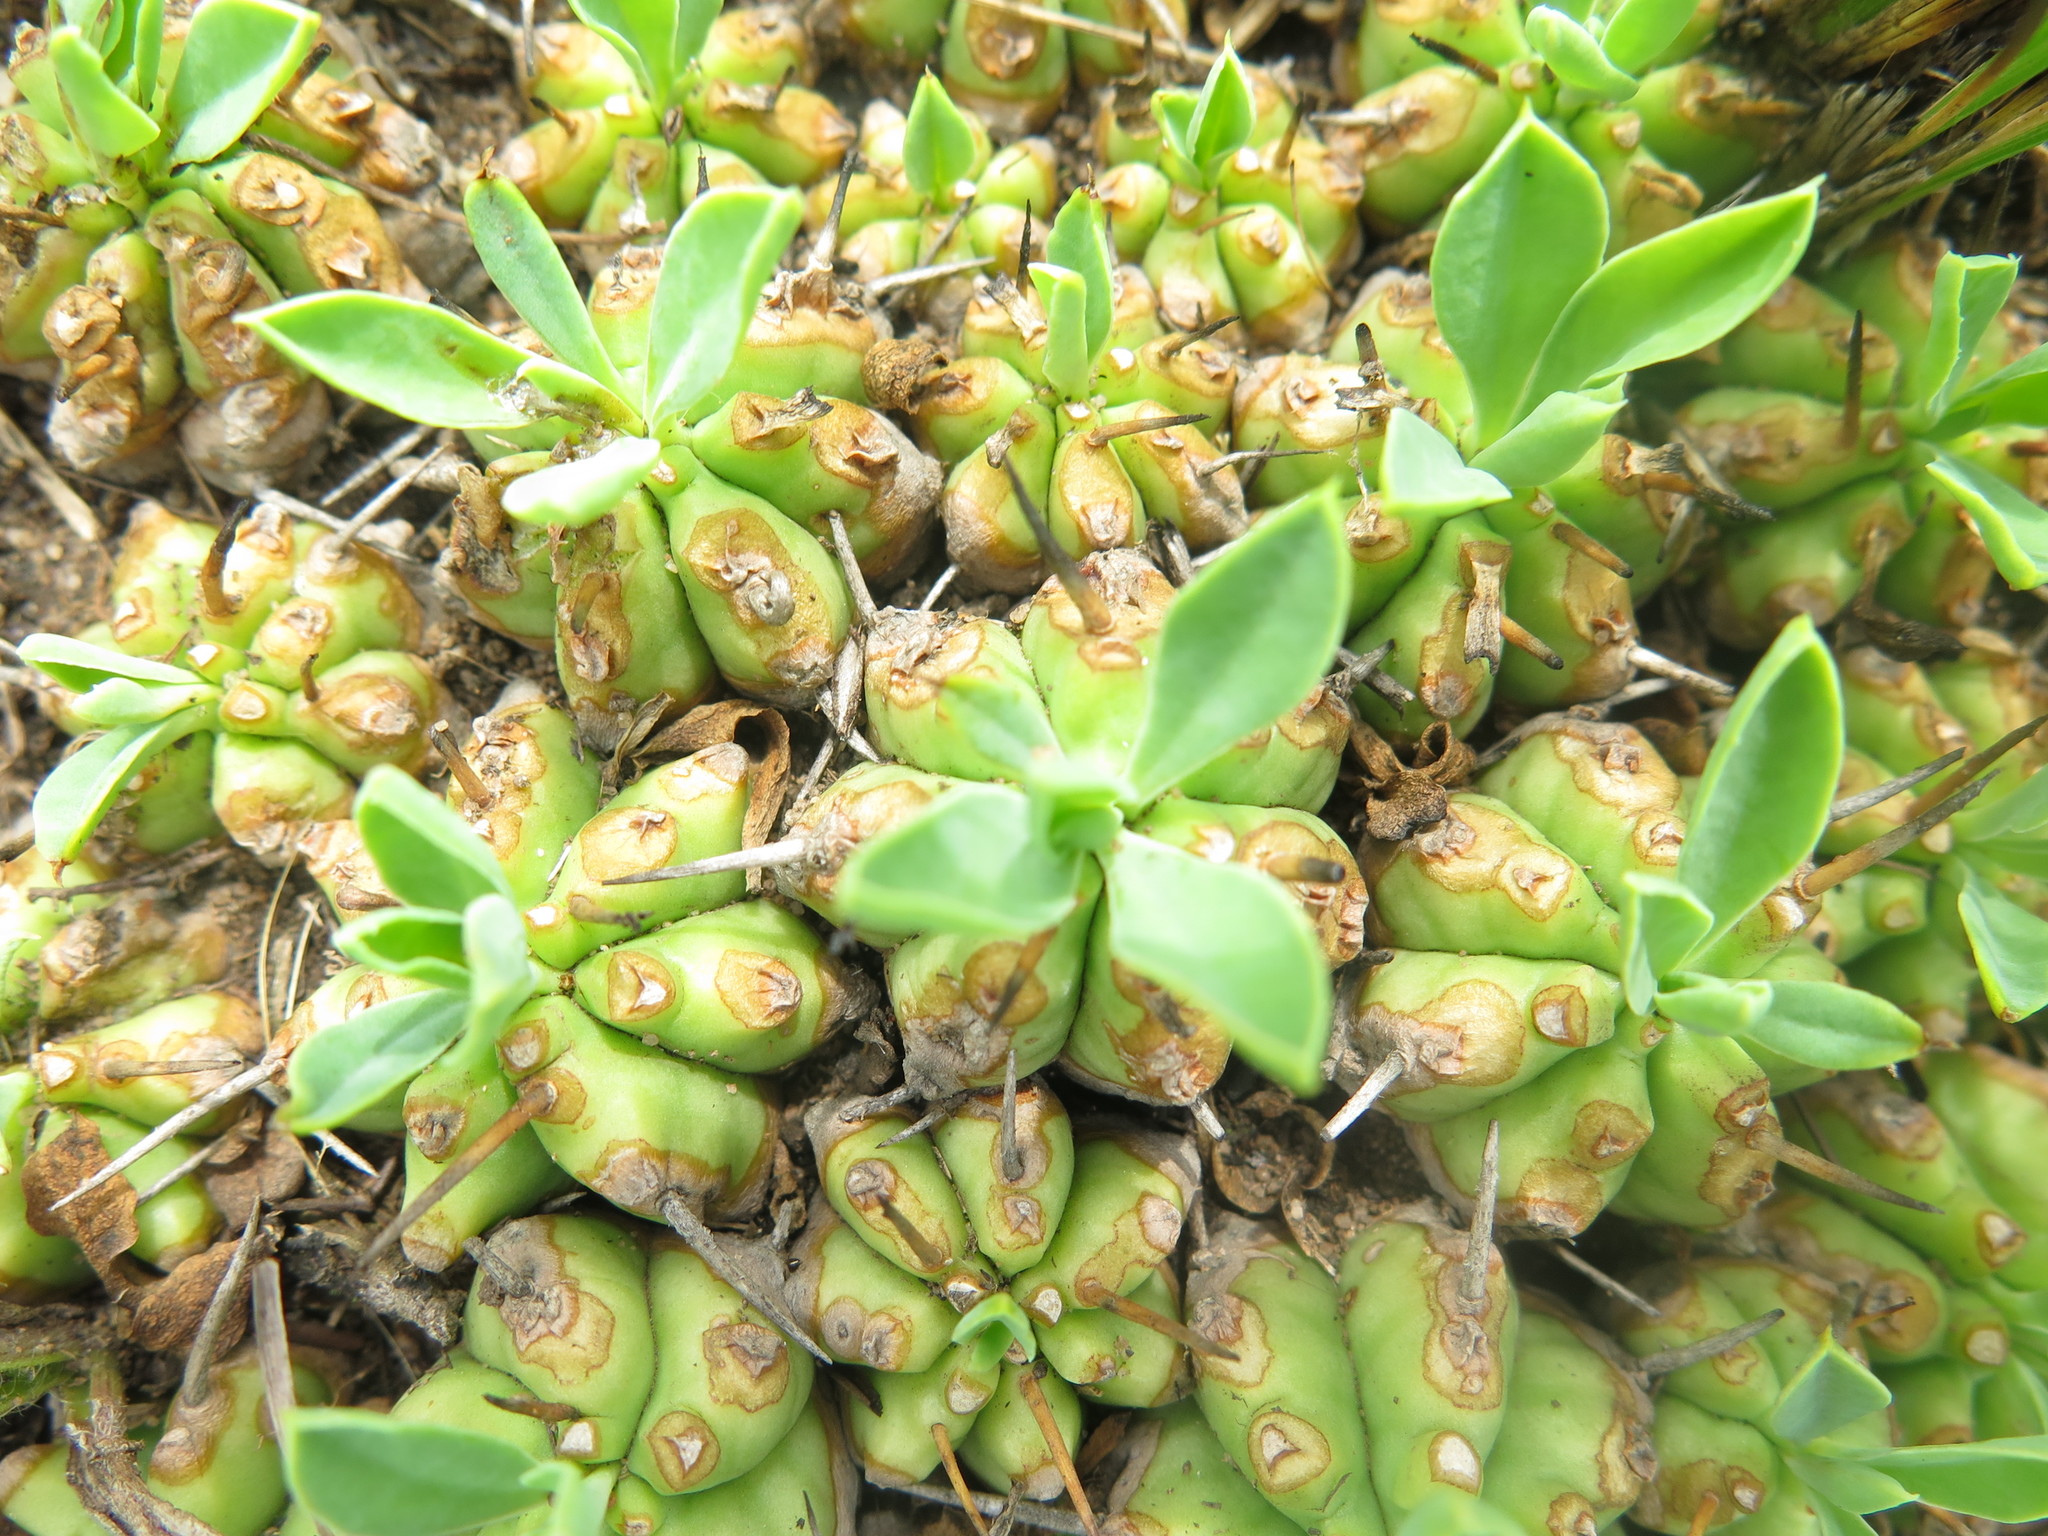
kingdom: Plantae
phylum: Tracheophyta
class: Magnoliopsida
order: Malpighiales
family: Euphorbiaceae
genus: Euphorbia
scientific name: Euphorbia pulvinata
